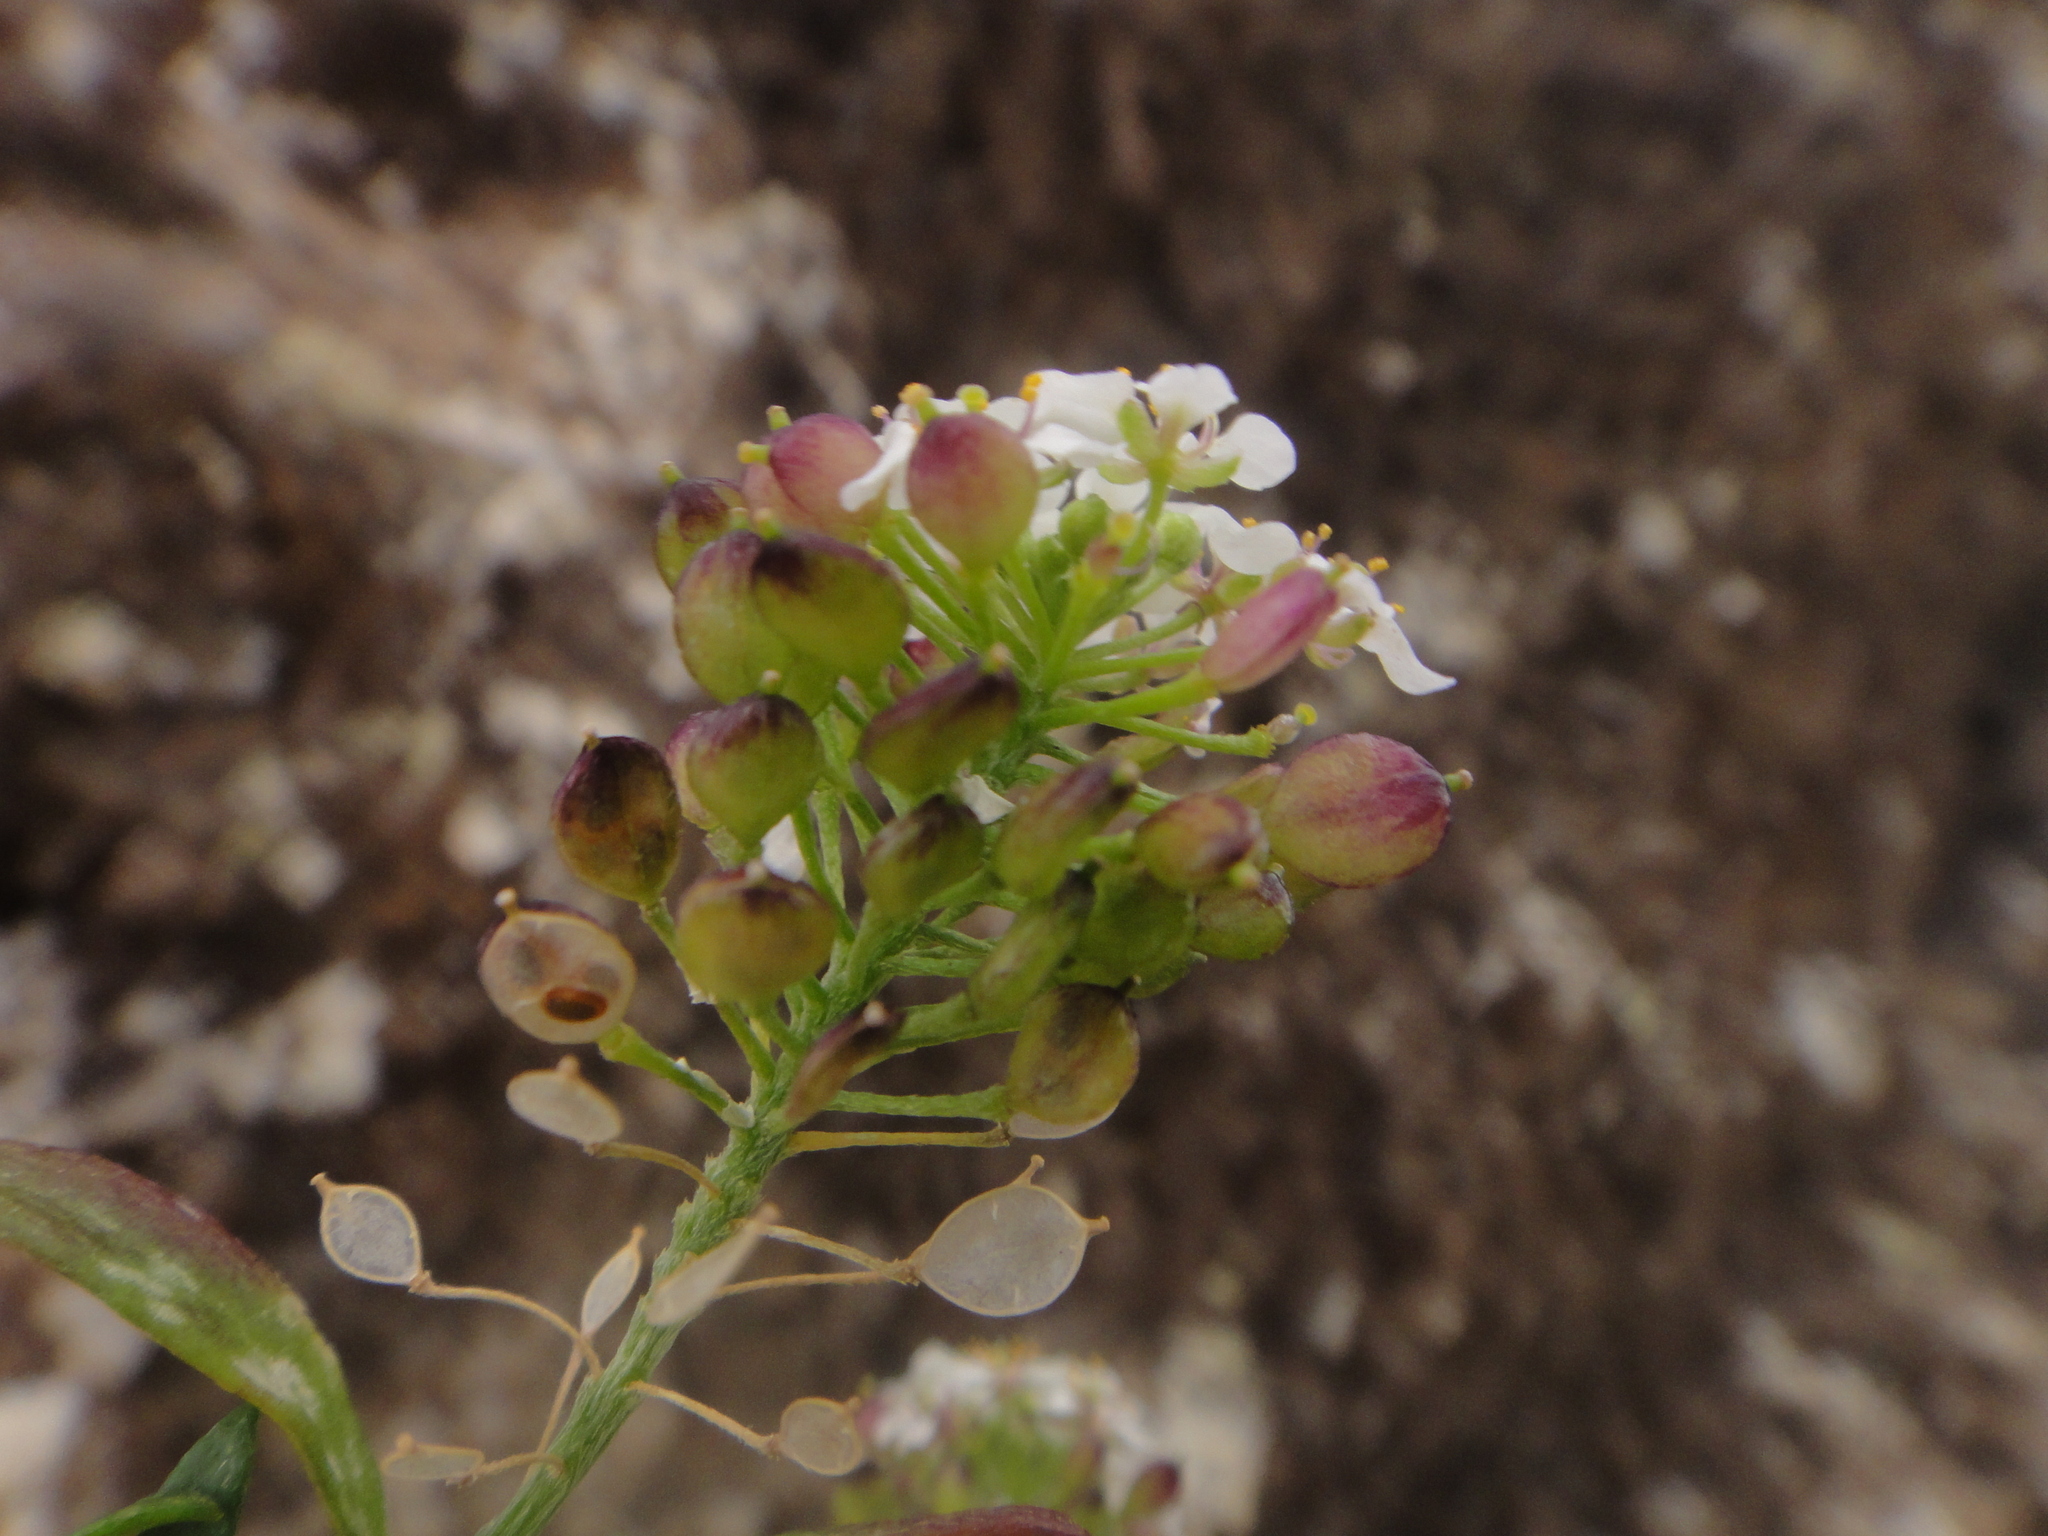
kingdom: Plantae
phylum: Tracheophyta
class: Magnoliopsida
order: Brassicales
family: Brassicaceae
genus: Lobularia
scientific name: Lobularia canariensis
